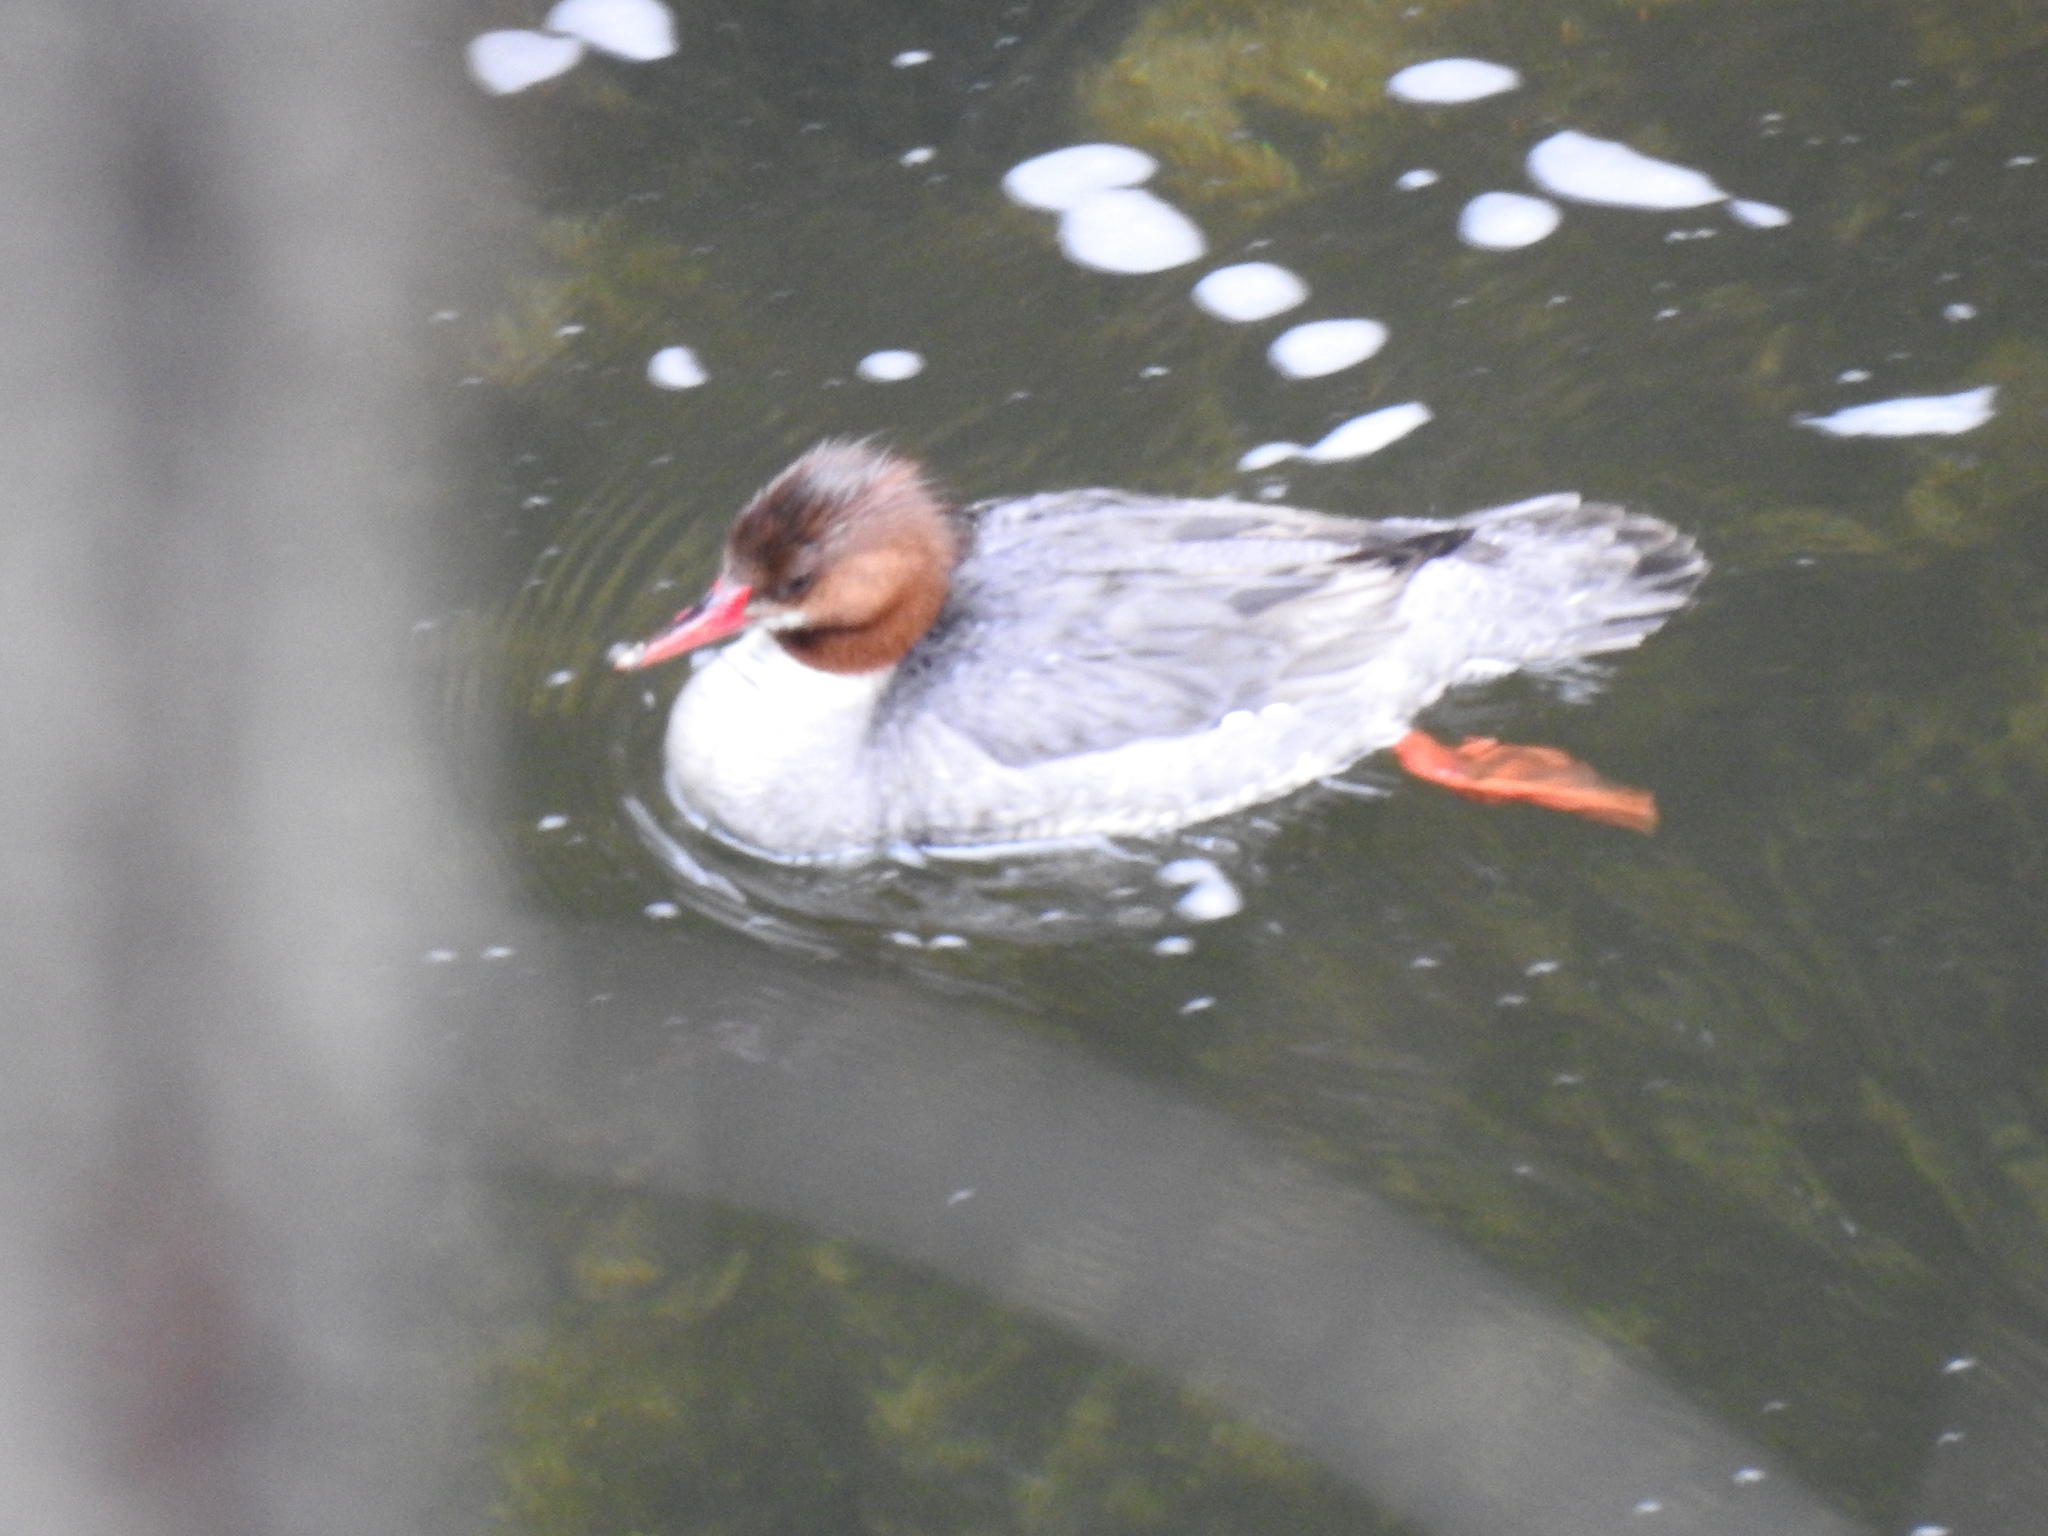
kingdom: Animalia
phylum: Chordata
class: Aves
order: Anseriformes
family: Anatidae
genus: Mergus
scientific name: Mergus merganser
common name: Common merganser
